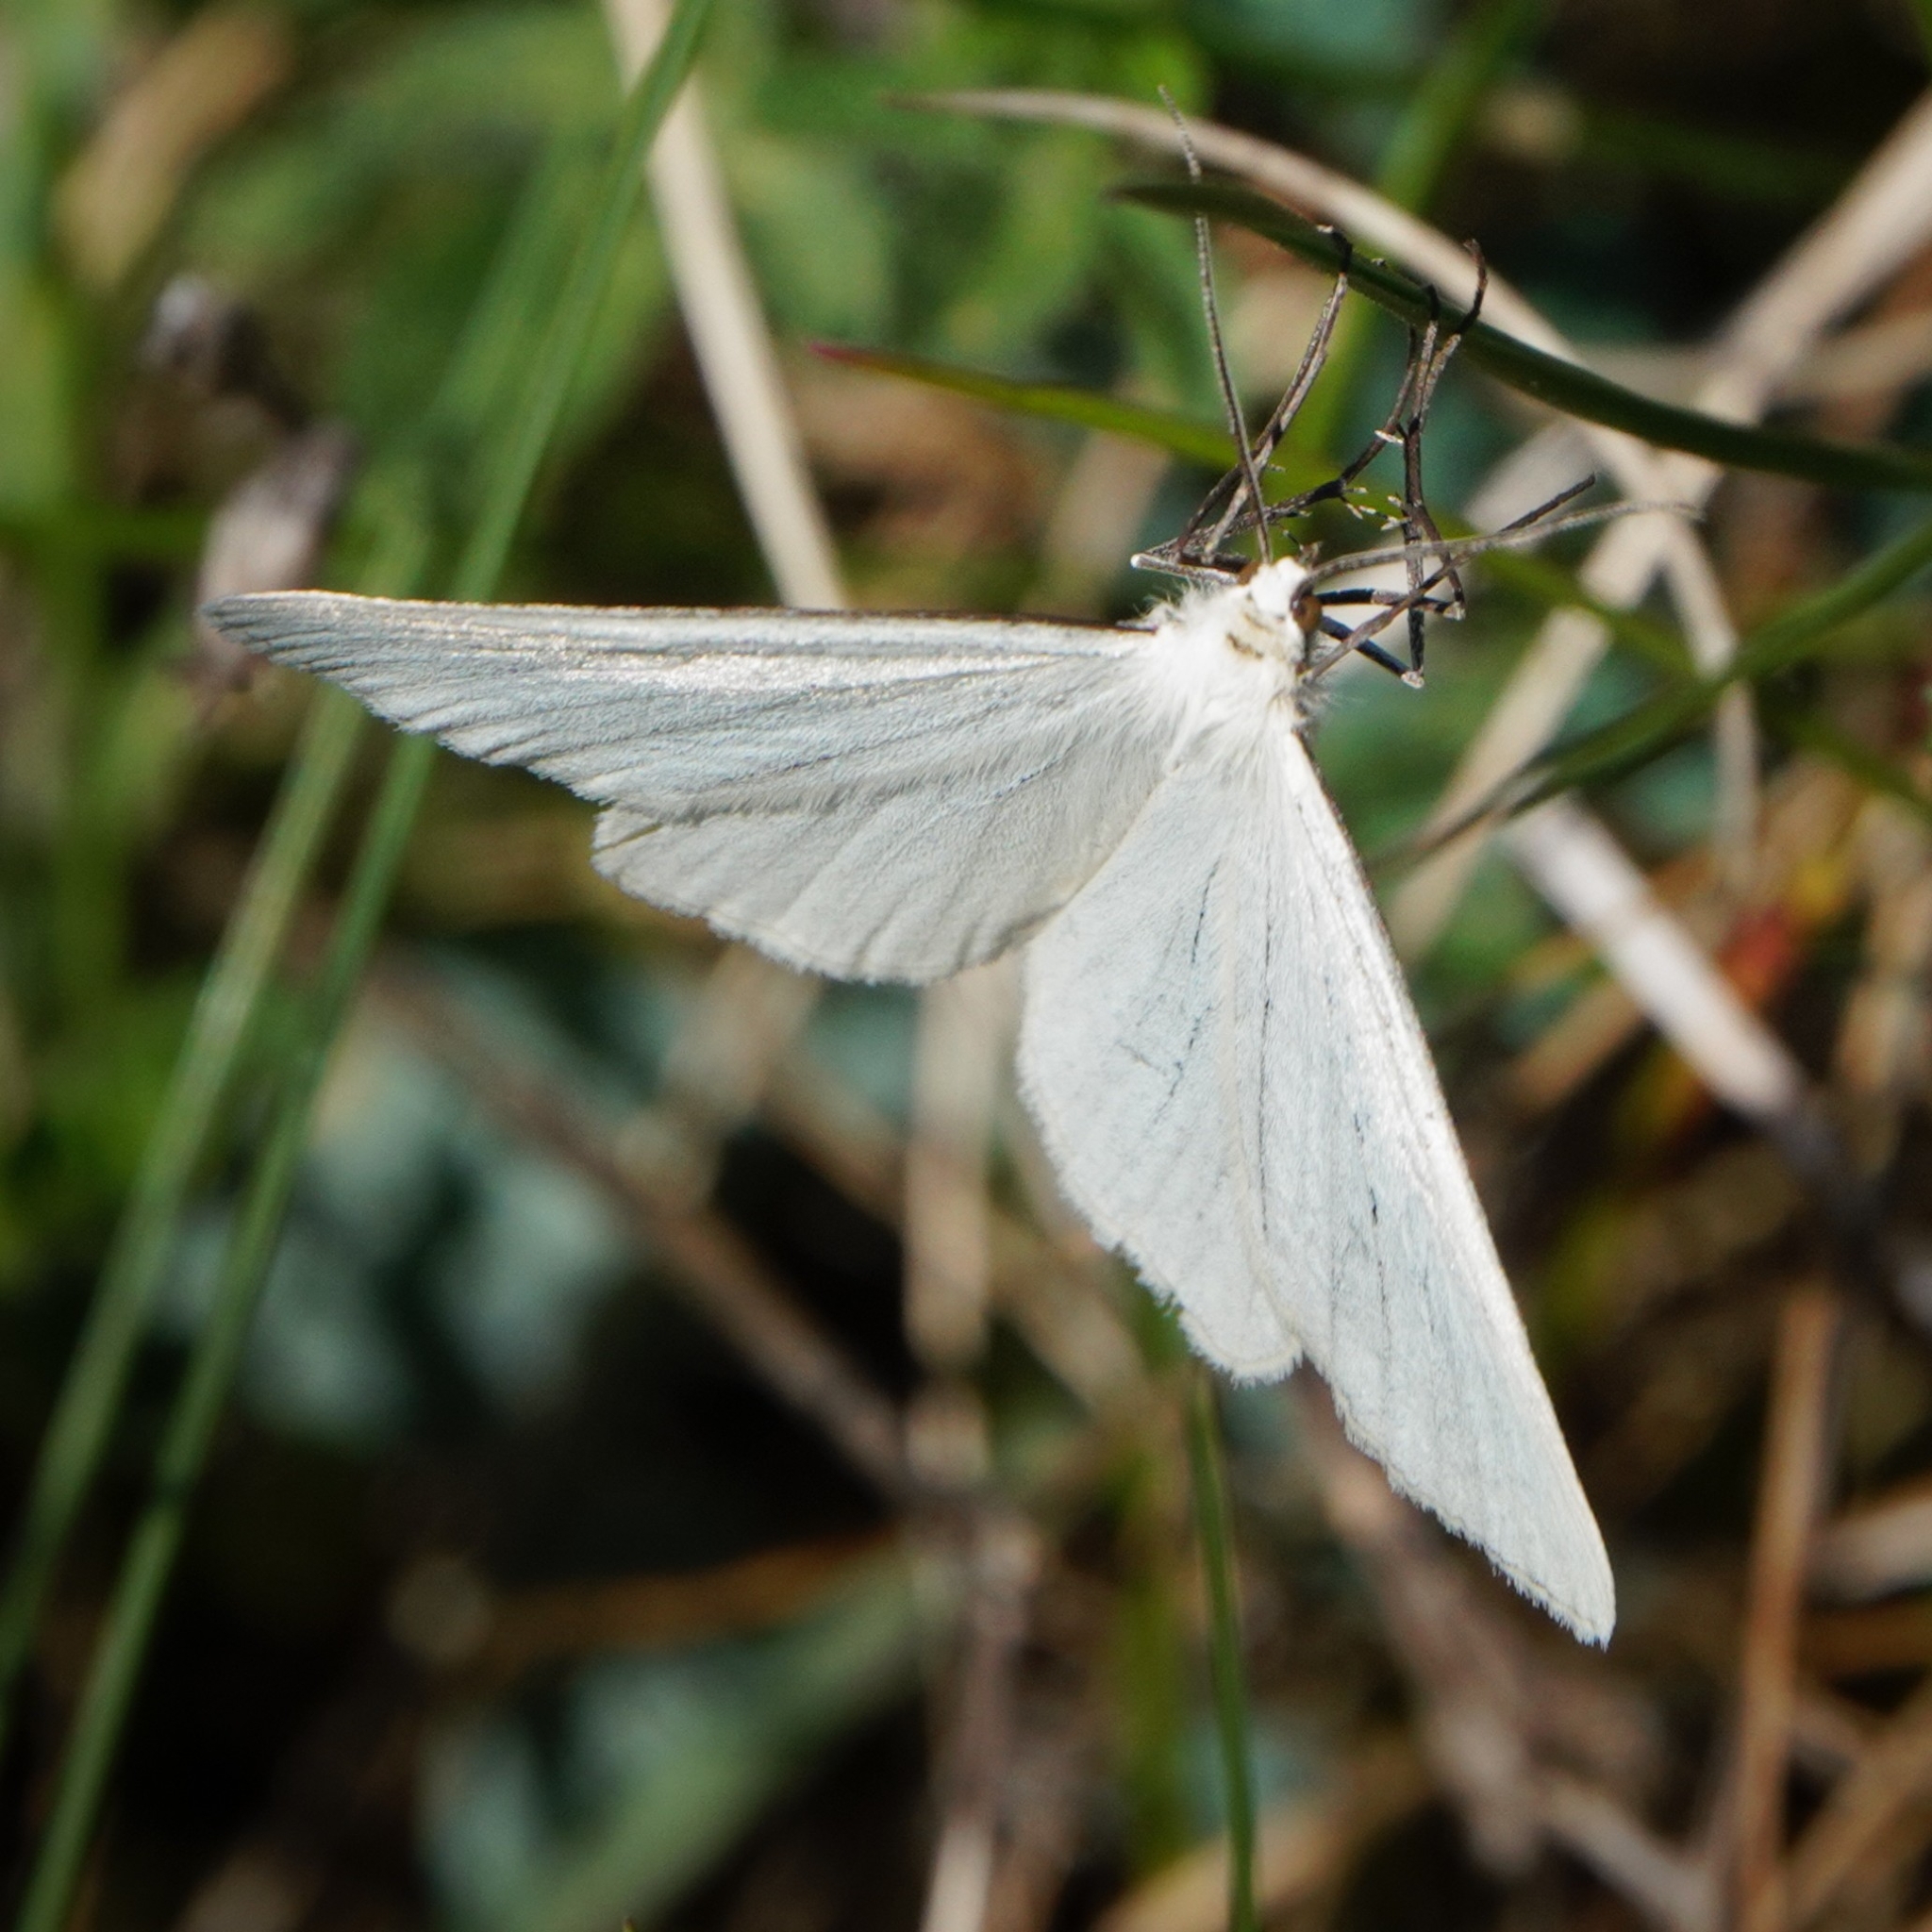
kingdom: Animalia
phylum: Arthropoda
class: Insecta
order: Lepidoptera
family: Geometridae
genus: Siona
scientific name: Siona lineata
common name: Black-veined moth
